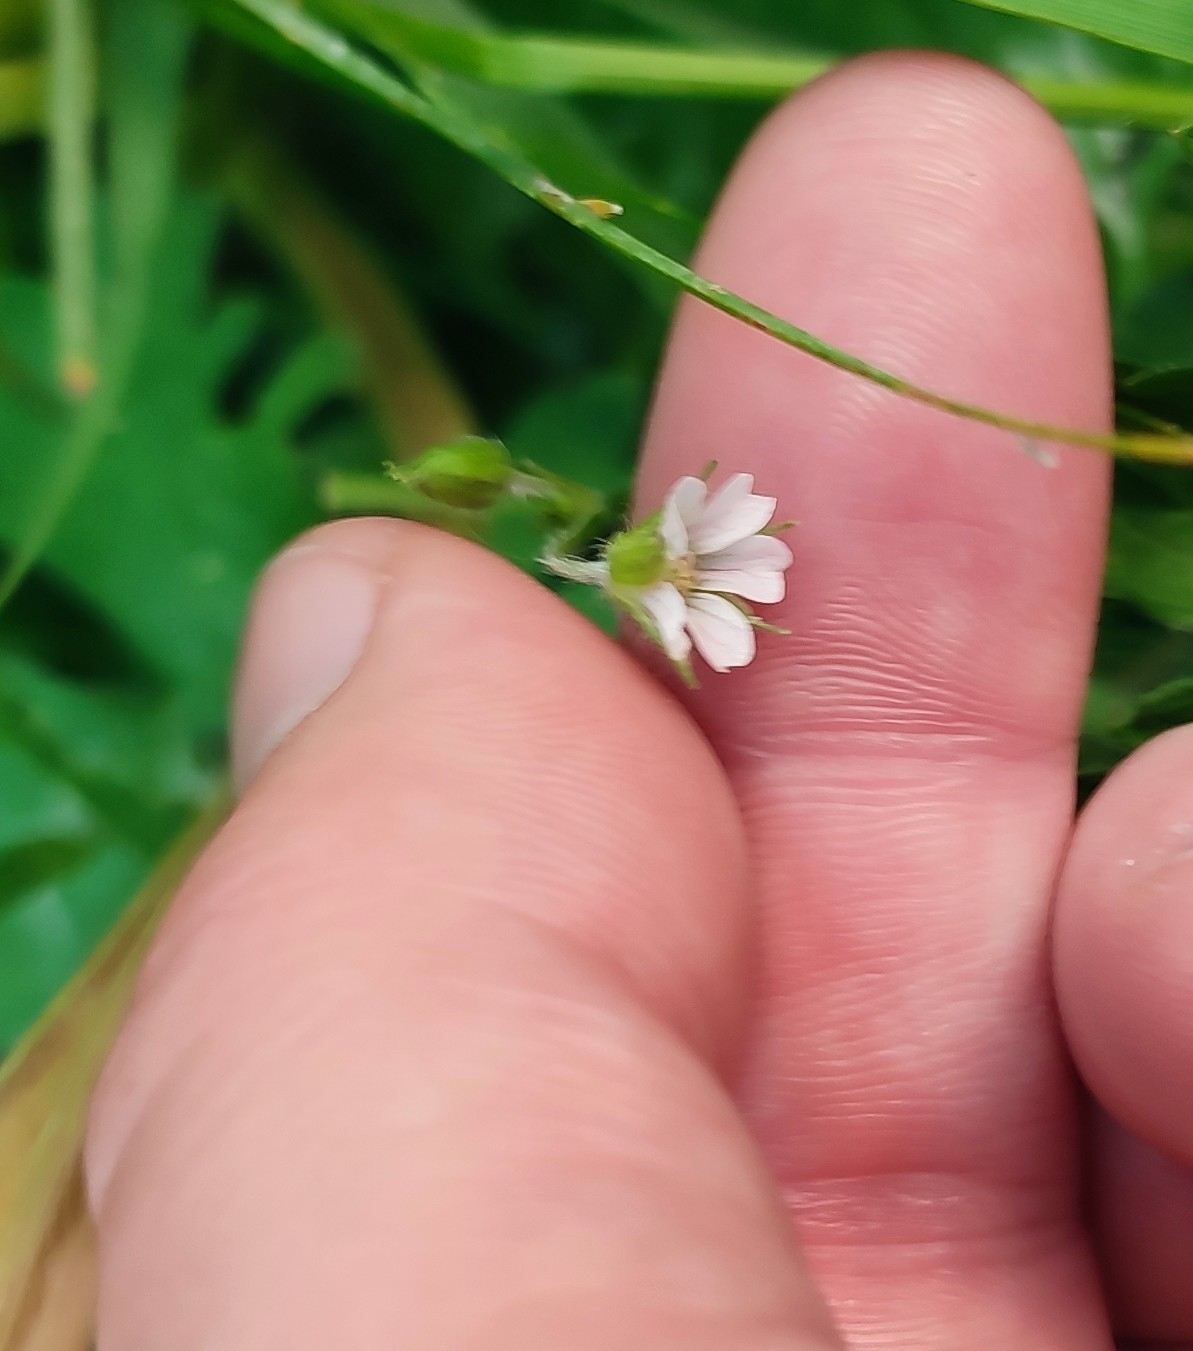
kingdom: Plantae
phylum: Tracheophyta
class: Magnoliopsida
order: Geraniales
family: Geraniaceae
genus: Geranium
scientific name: Geranium sibiricum
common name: Siberian crane's-bill
